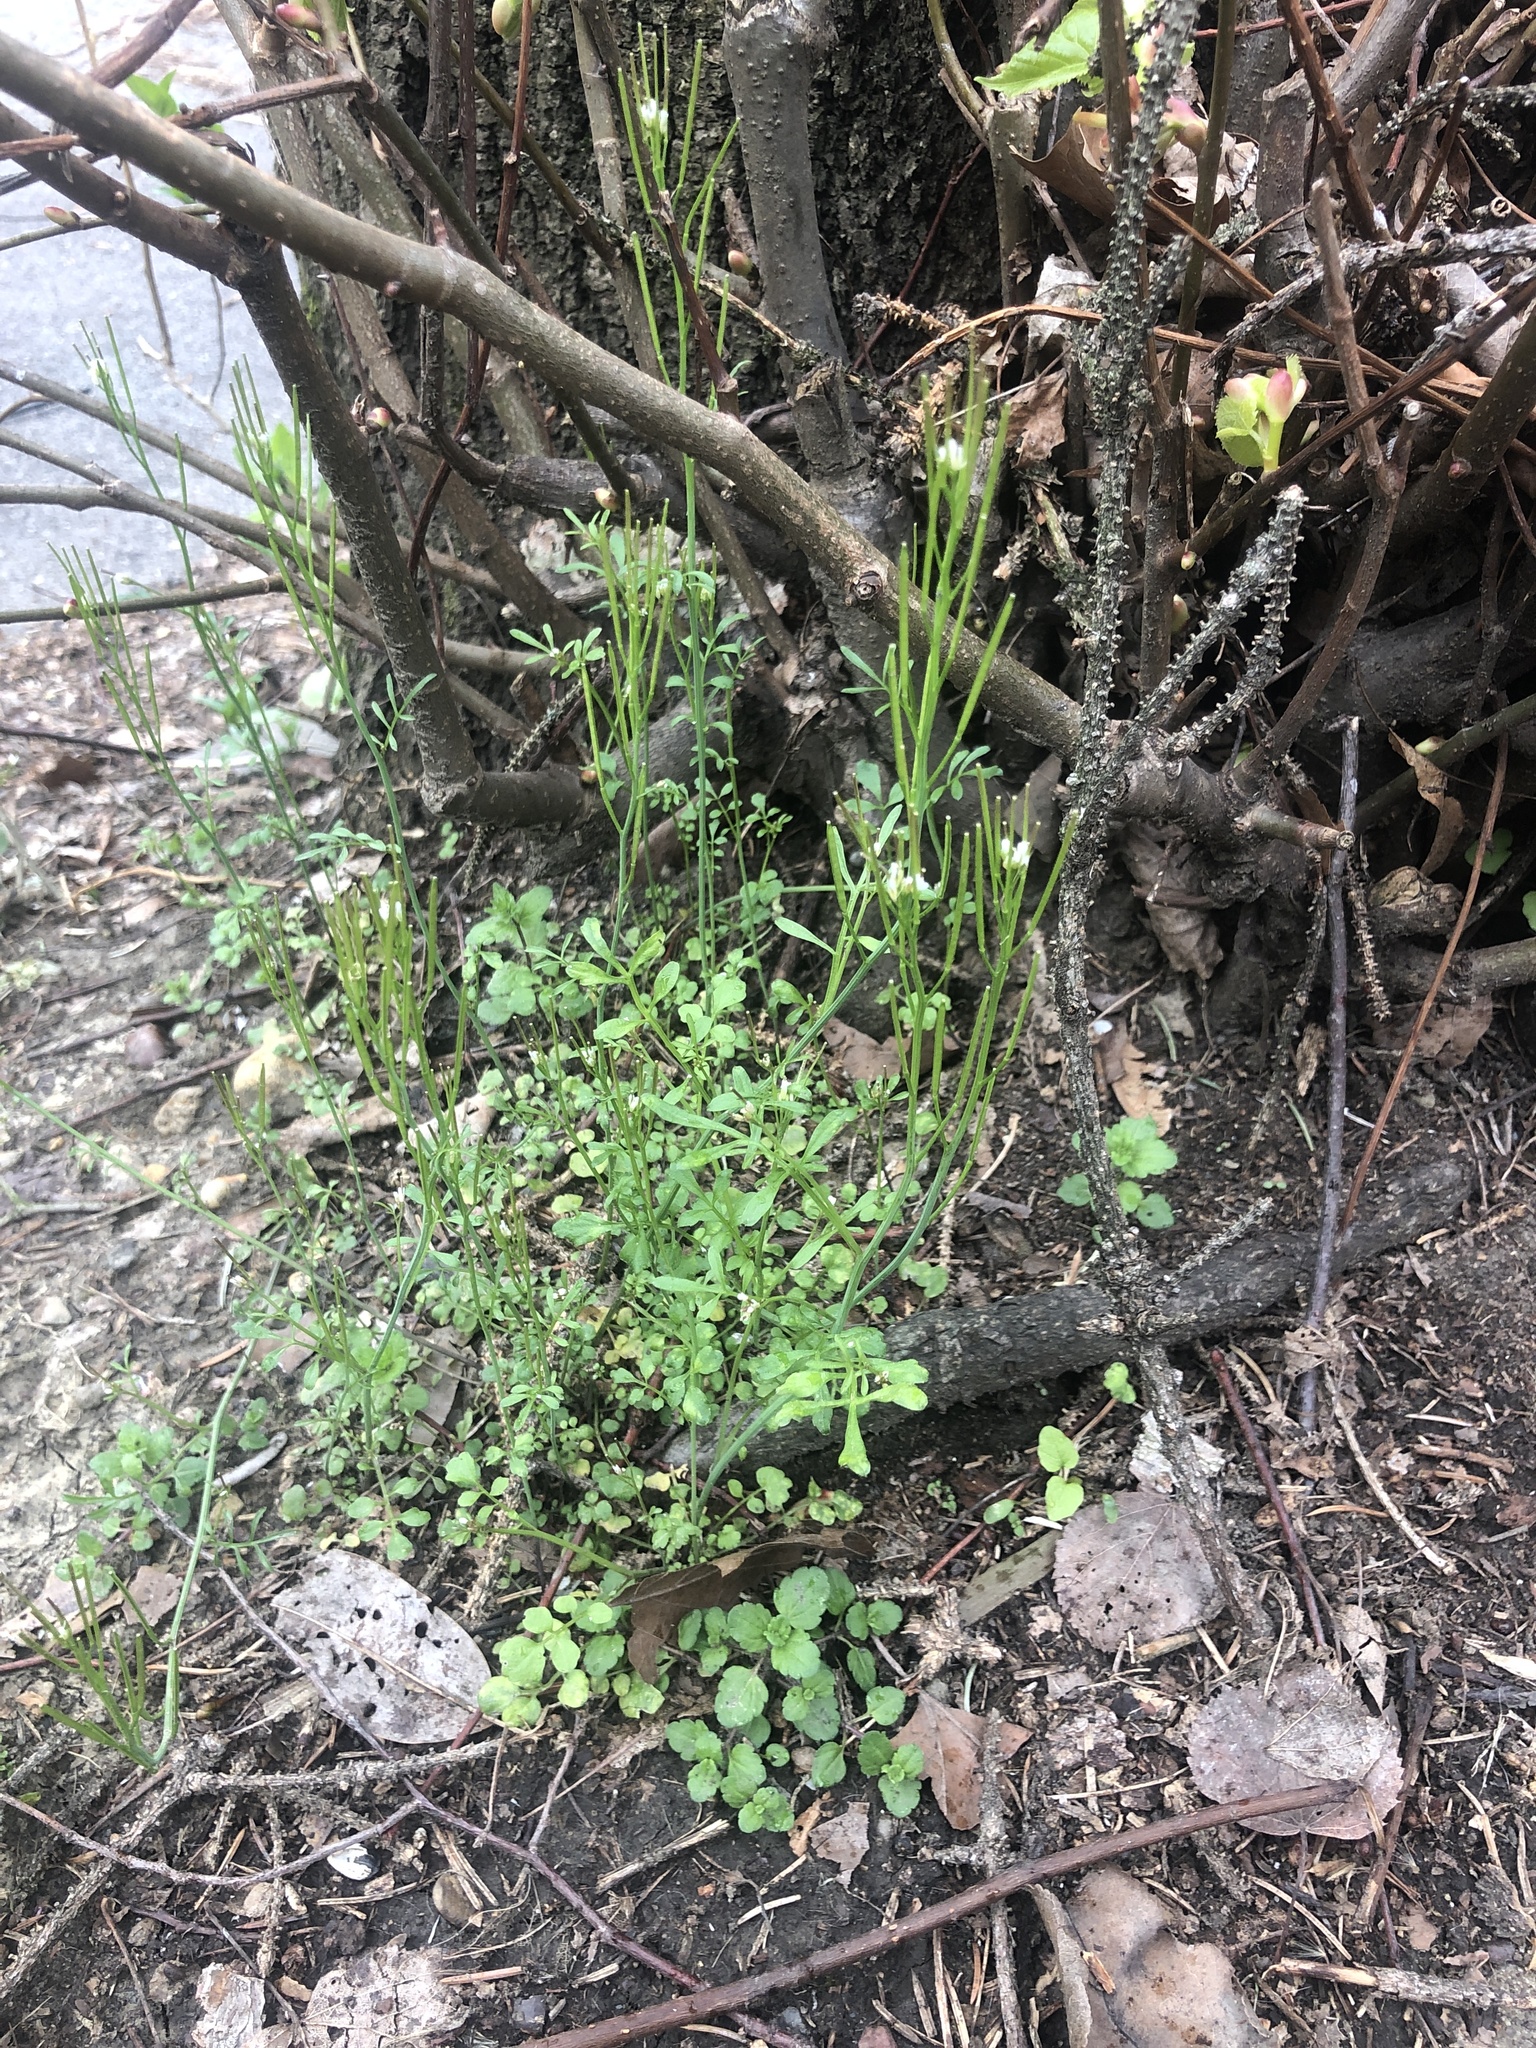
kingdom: Plantae
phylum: Tracheophyta
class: Magnoliopsida
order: Brassicales
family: Brassicaceae
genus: Cardamine
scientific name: Cardamine hirsuta
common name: Hairy bittercress
